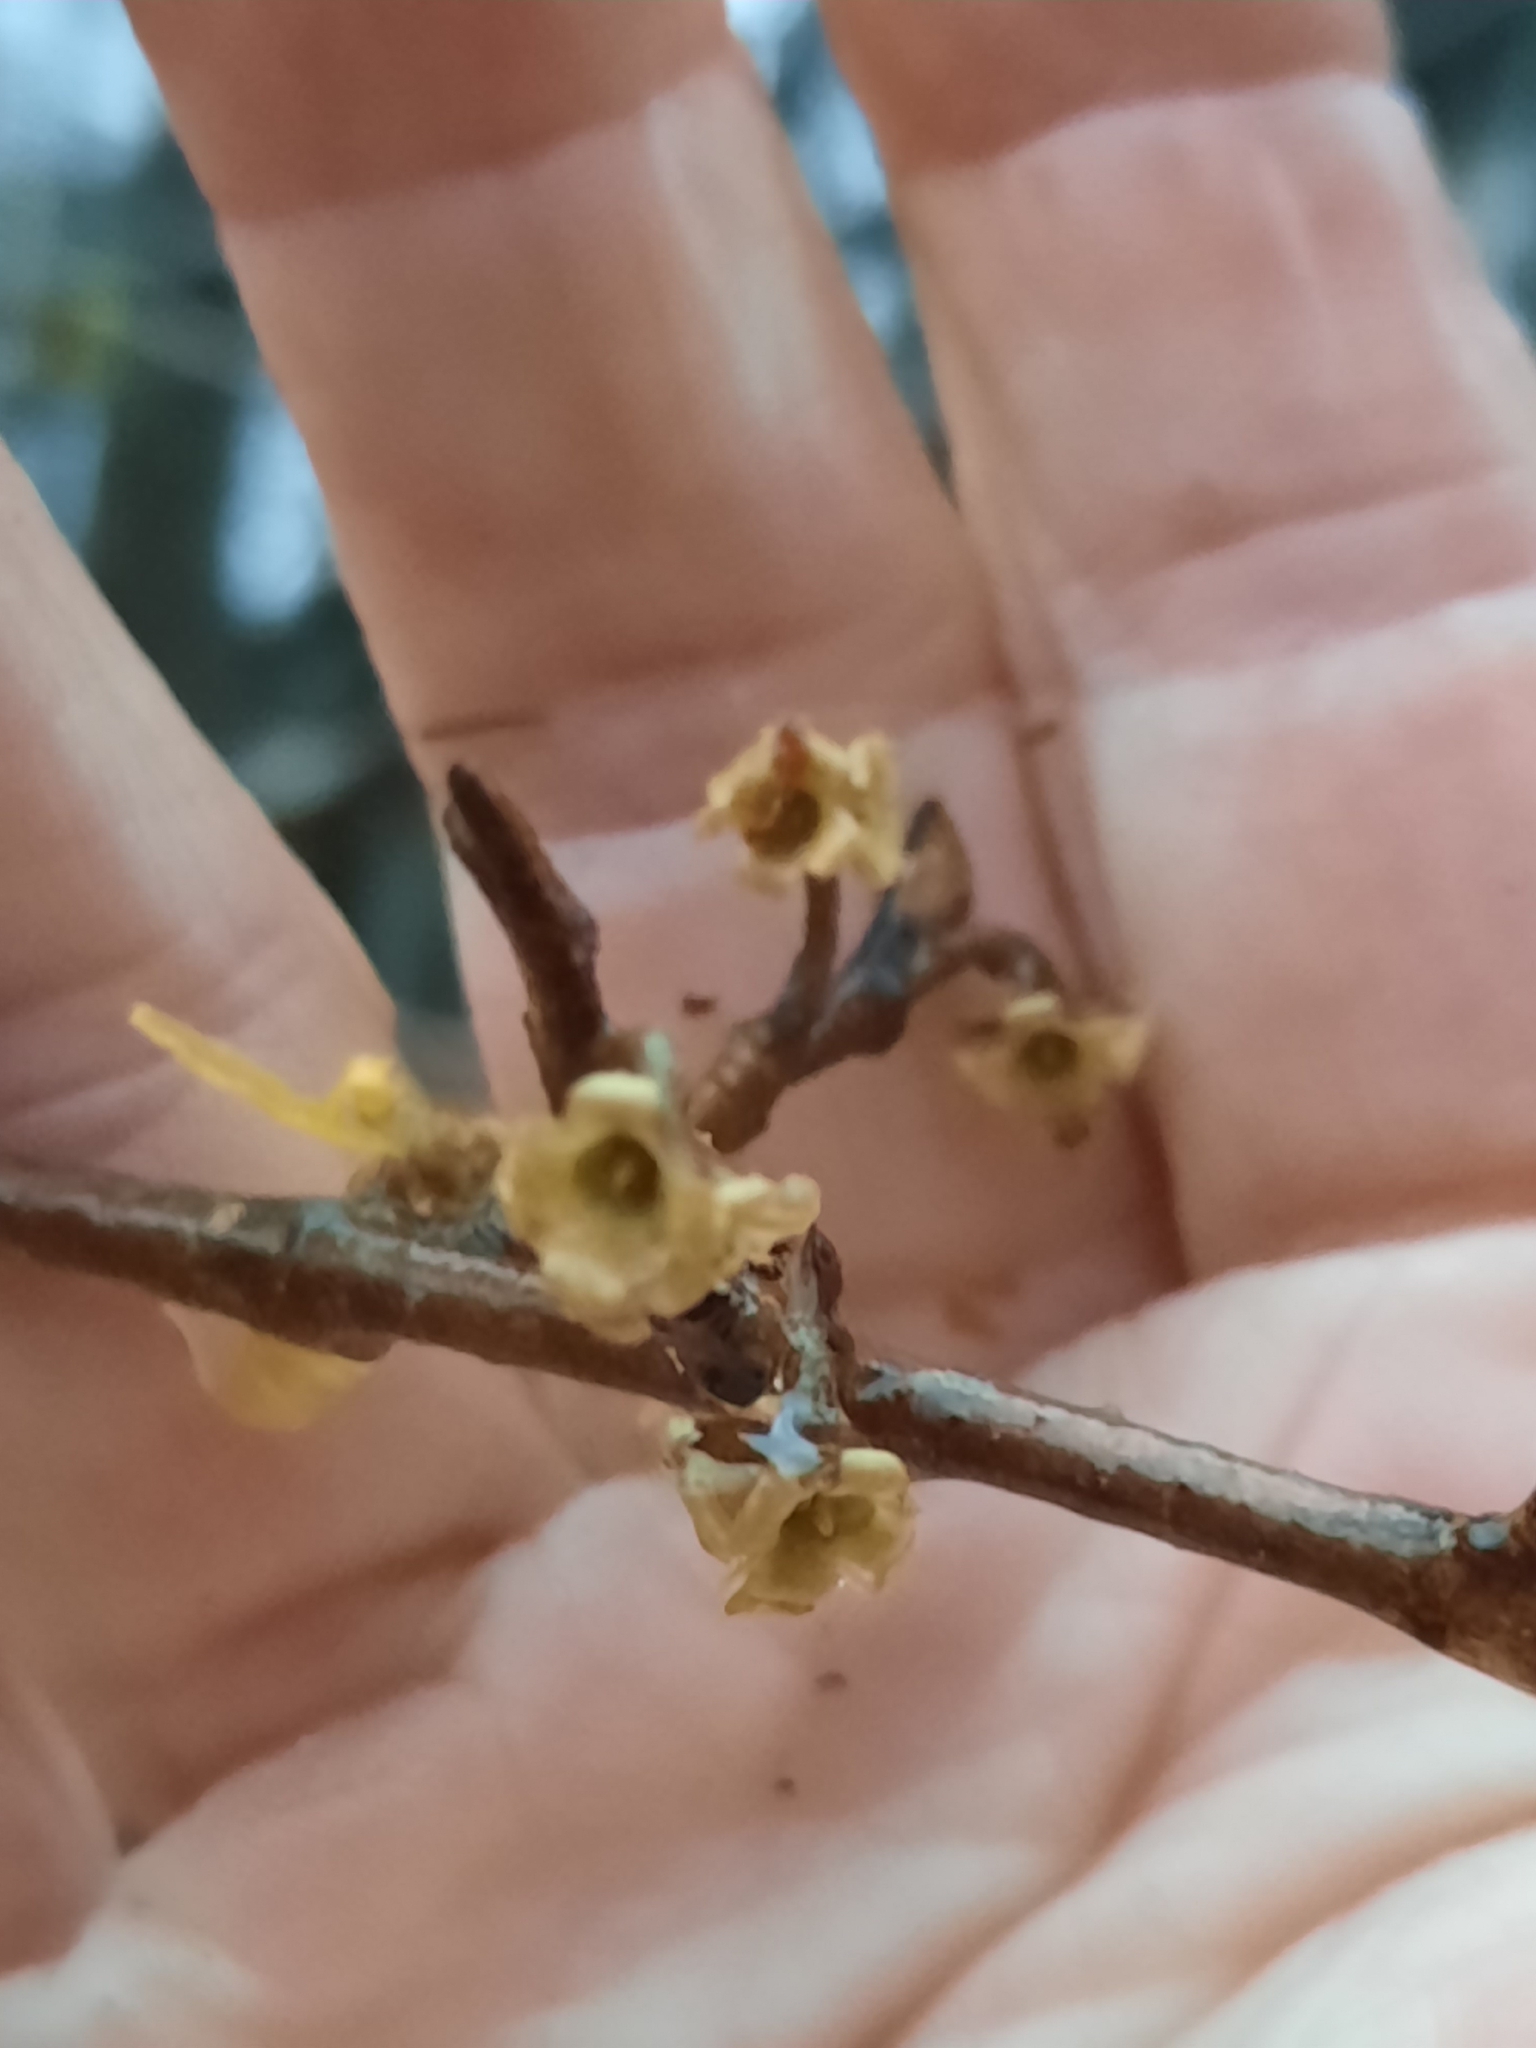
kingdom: Plantae
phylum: Tracheophyta
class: Magnoliopsida
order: Saxifragales
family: Hamamelidaceae
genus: Hamamelis
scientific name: Hamamelis virginiana
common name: Witch-hazel
